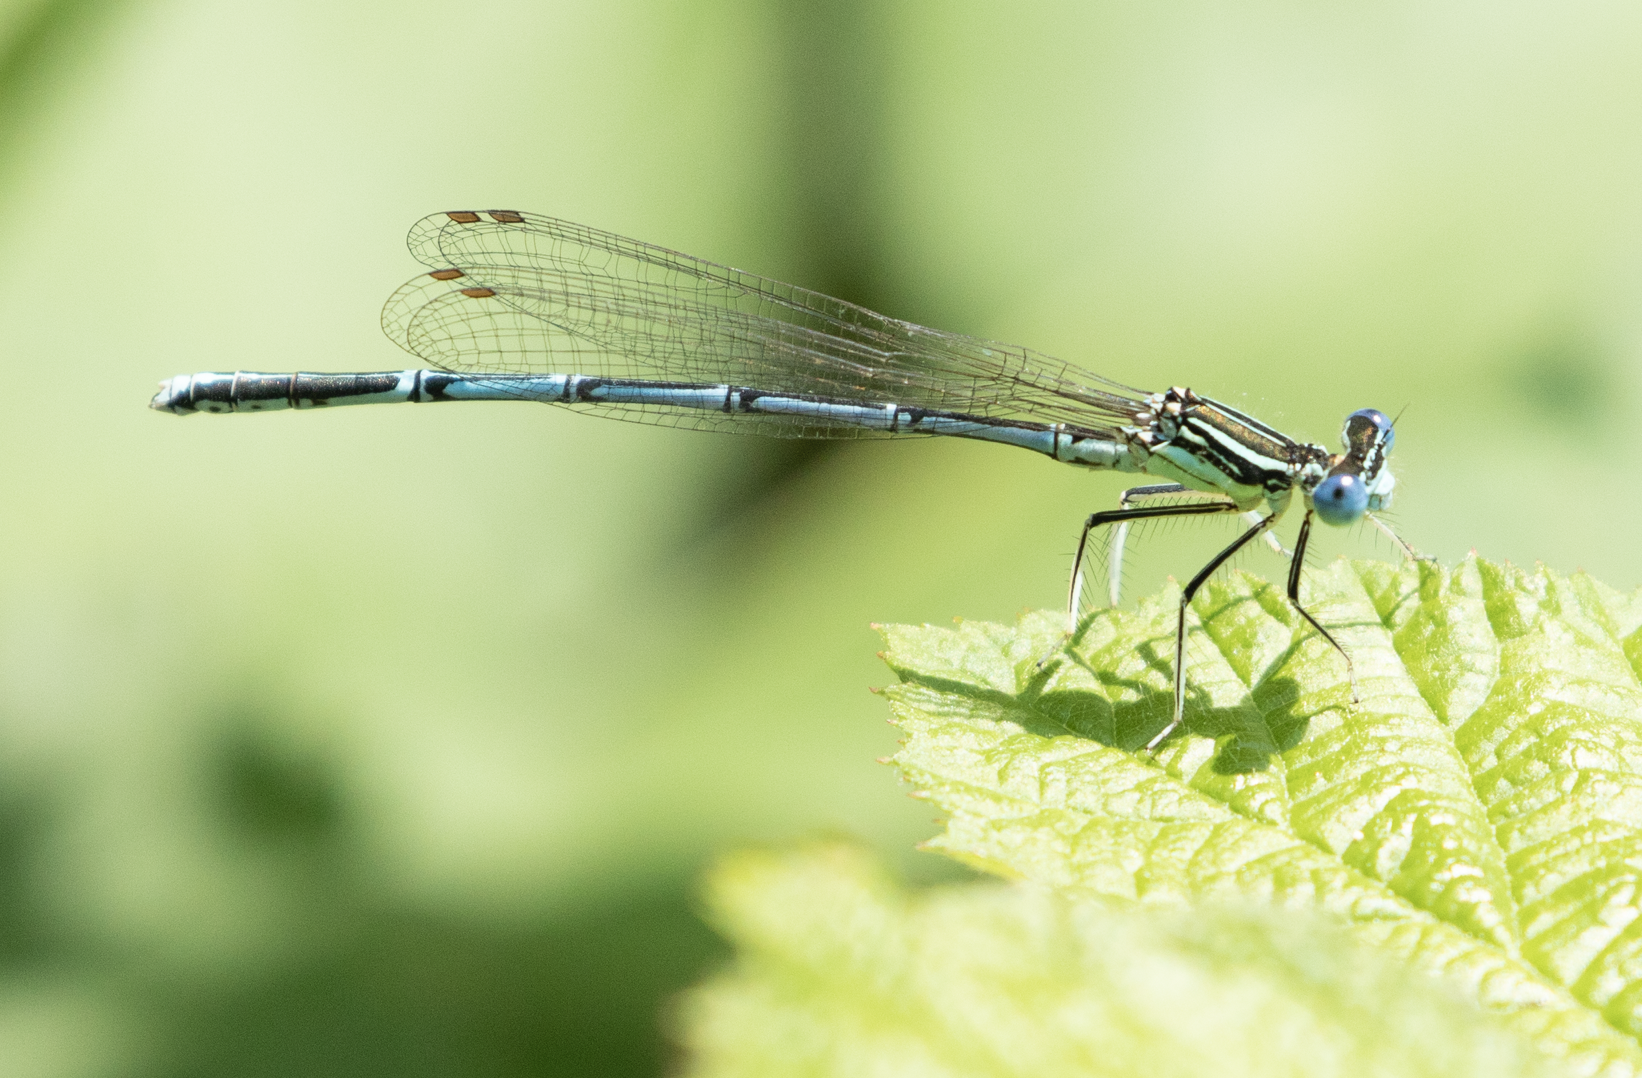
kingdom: Animalia
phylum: Arthropoda
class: Insecta
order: Odonata
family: Platycnemididae
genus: Platycnemis
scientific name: Platycnemis pennipes
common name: White-legged damselfly
